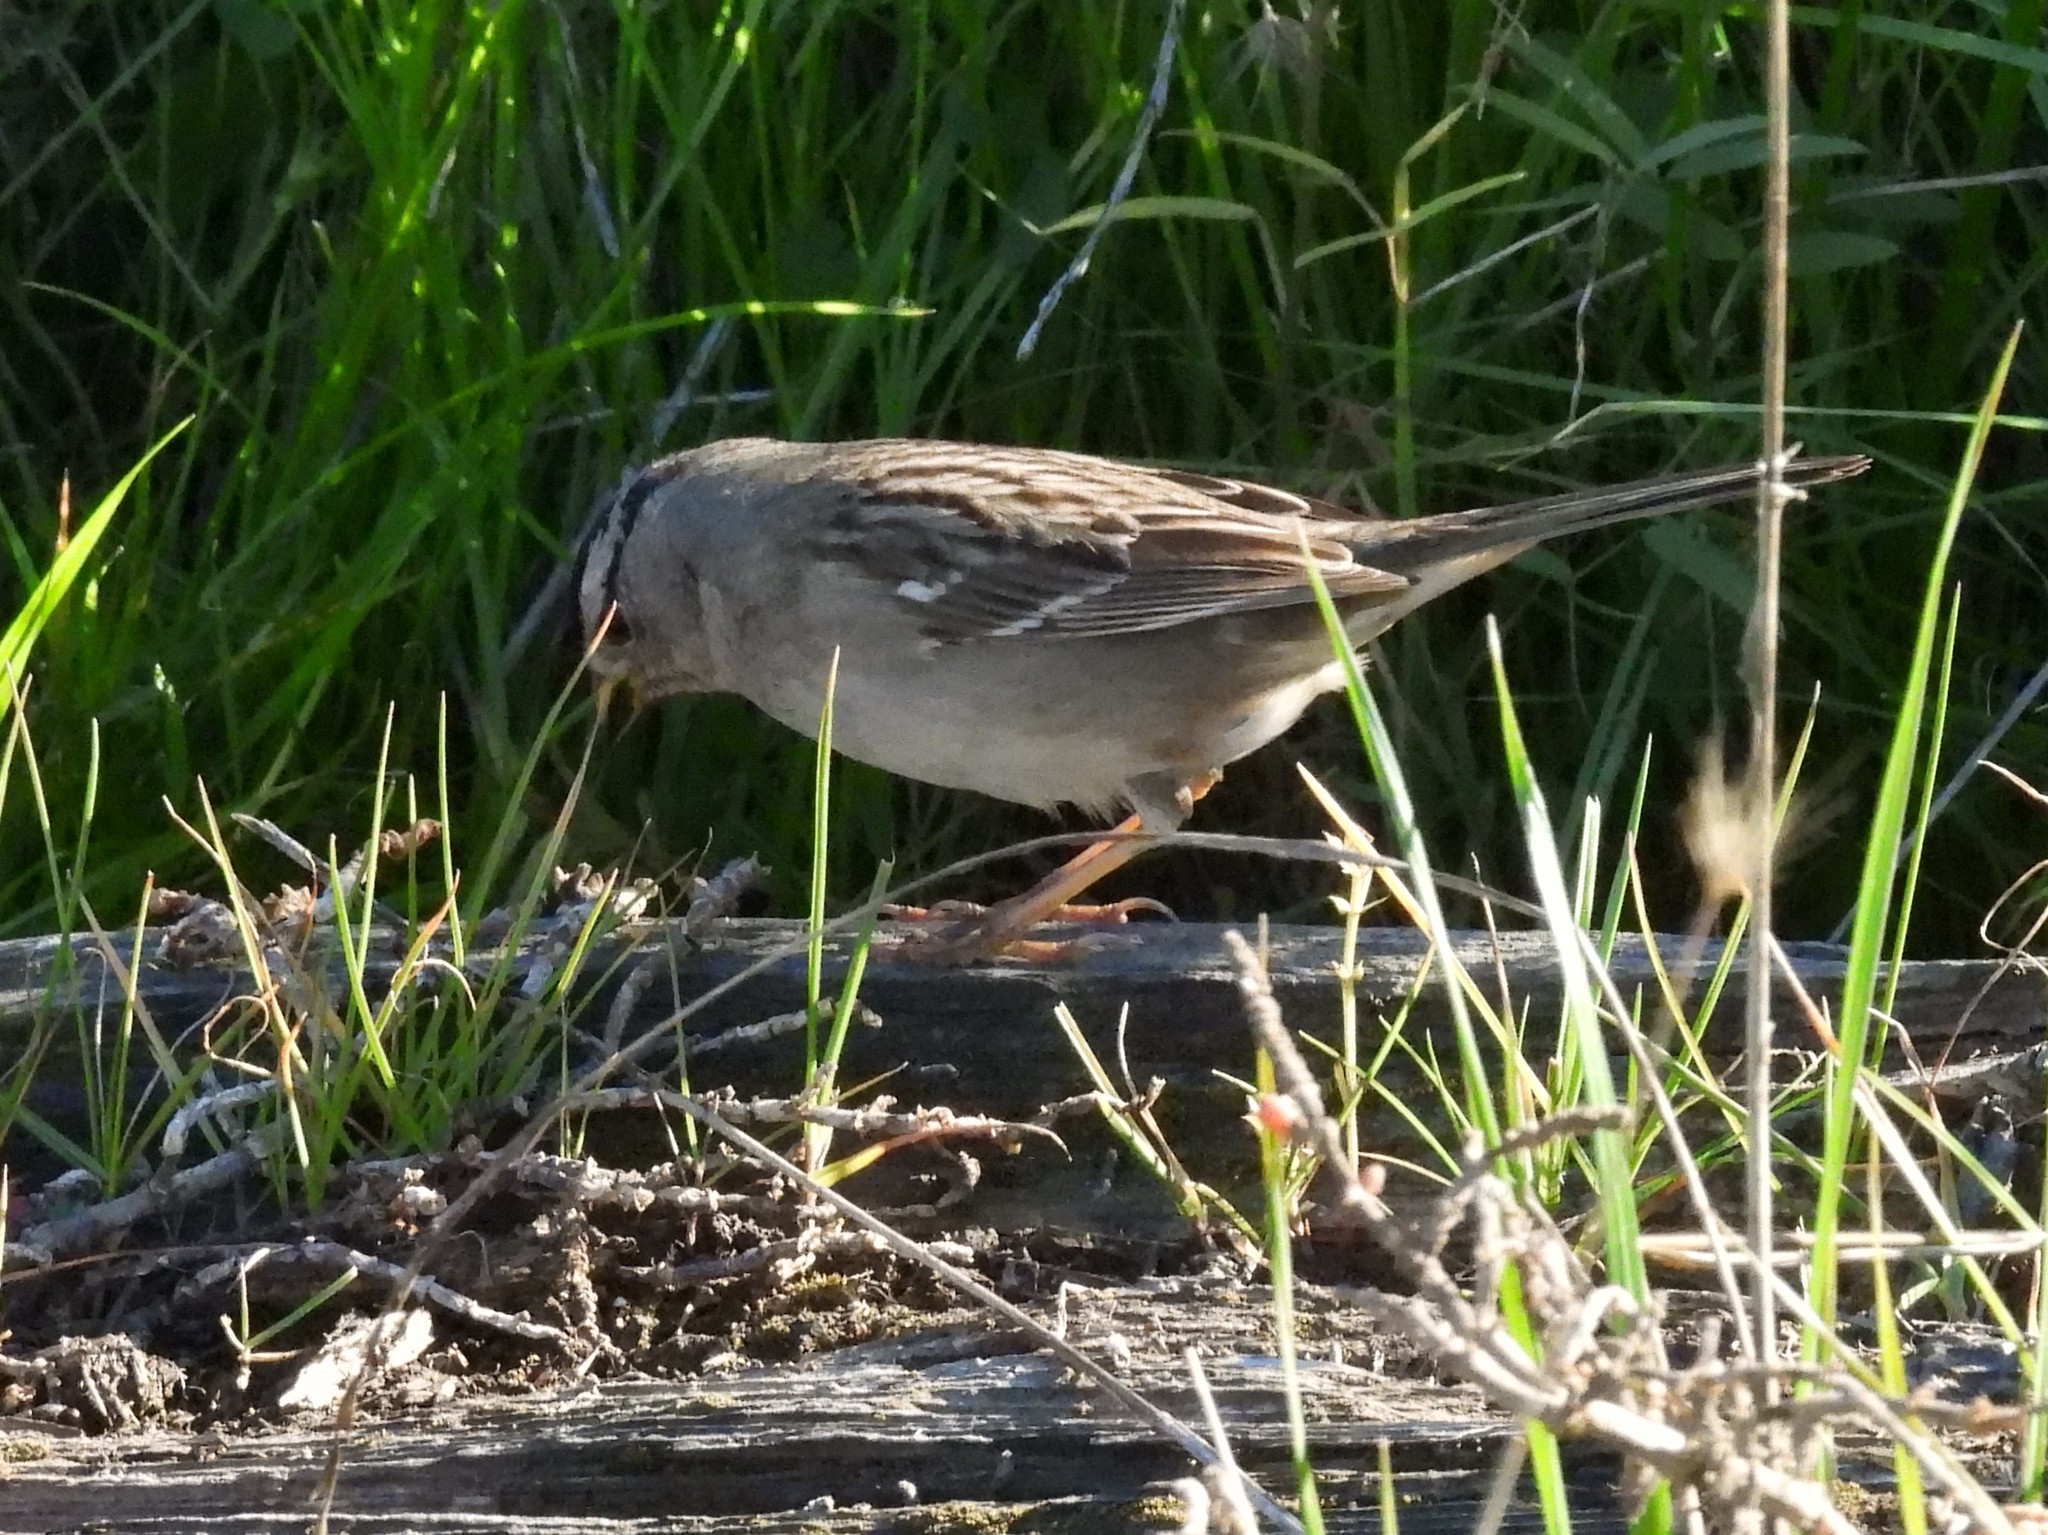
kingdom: Animalia
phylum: Chordata
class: Aves
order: Passeriformes
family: Passerellidae
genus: Zonotrichia
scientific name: Zonotrichia leucophrys
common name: White-crowned sparrow
